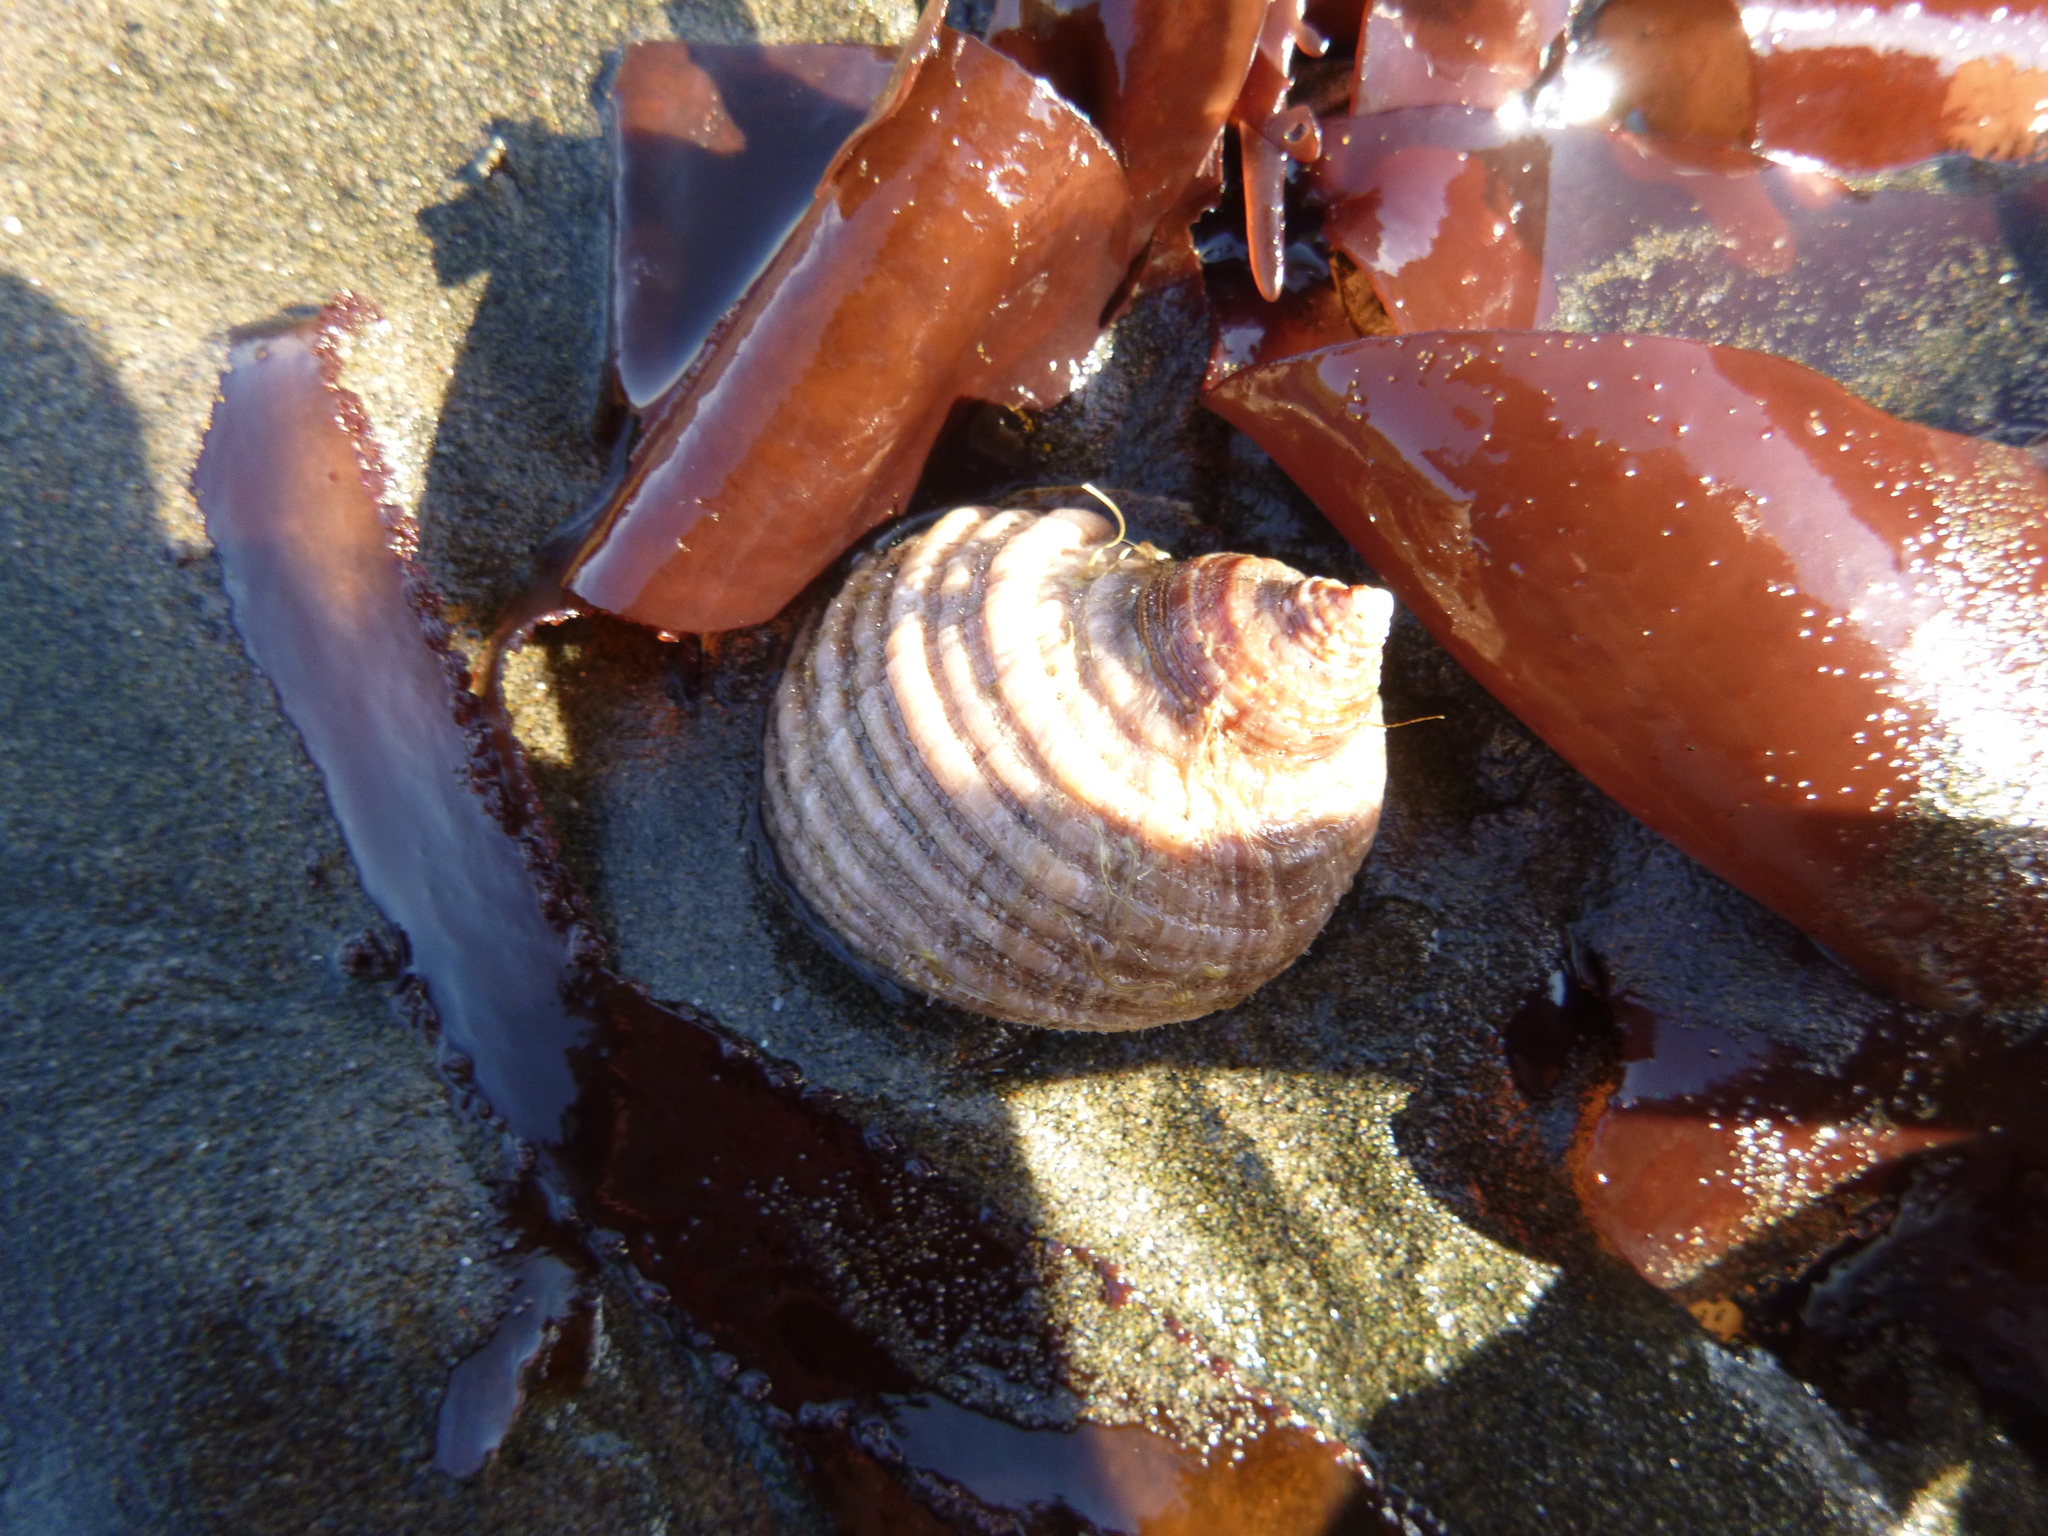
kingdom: Animalia
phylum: Mollusca
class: Gastropoda
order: Neogastropoda
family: Muricidae
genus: Dicathais
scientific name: Dicathais orbita
